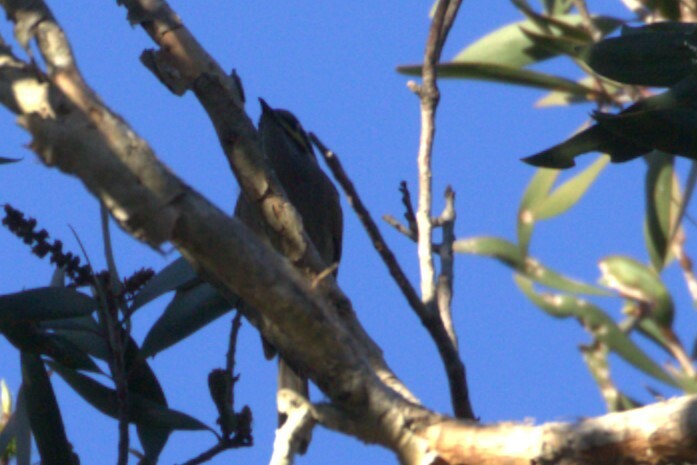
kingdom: Animalia
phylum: Chordata
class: Aves
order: Passeriformes
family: Meliphagidae
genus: Caligavis
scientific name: Caligavis chrysops
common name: Yellow-faced honeyeater
